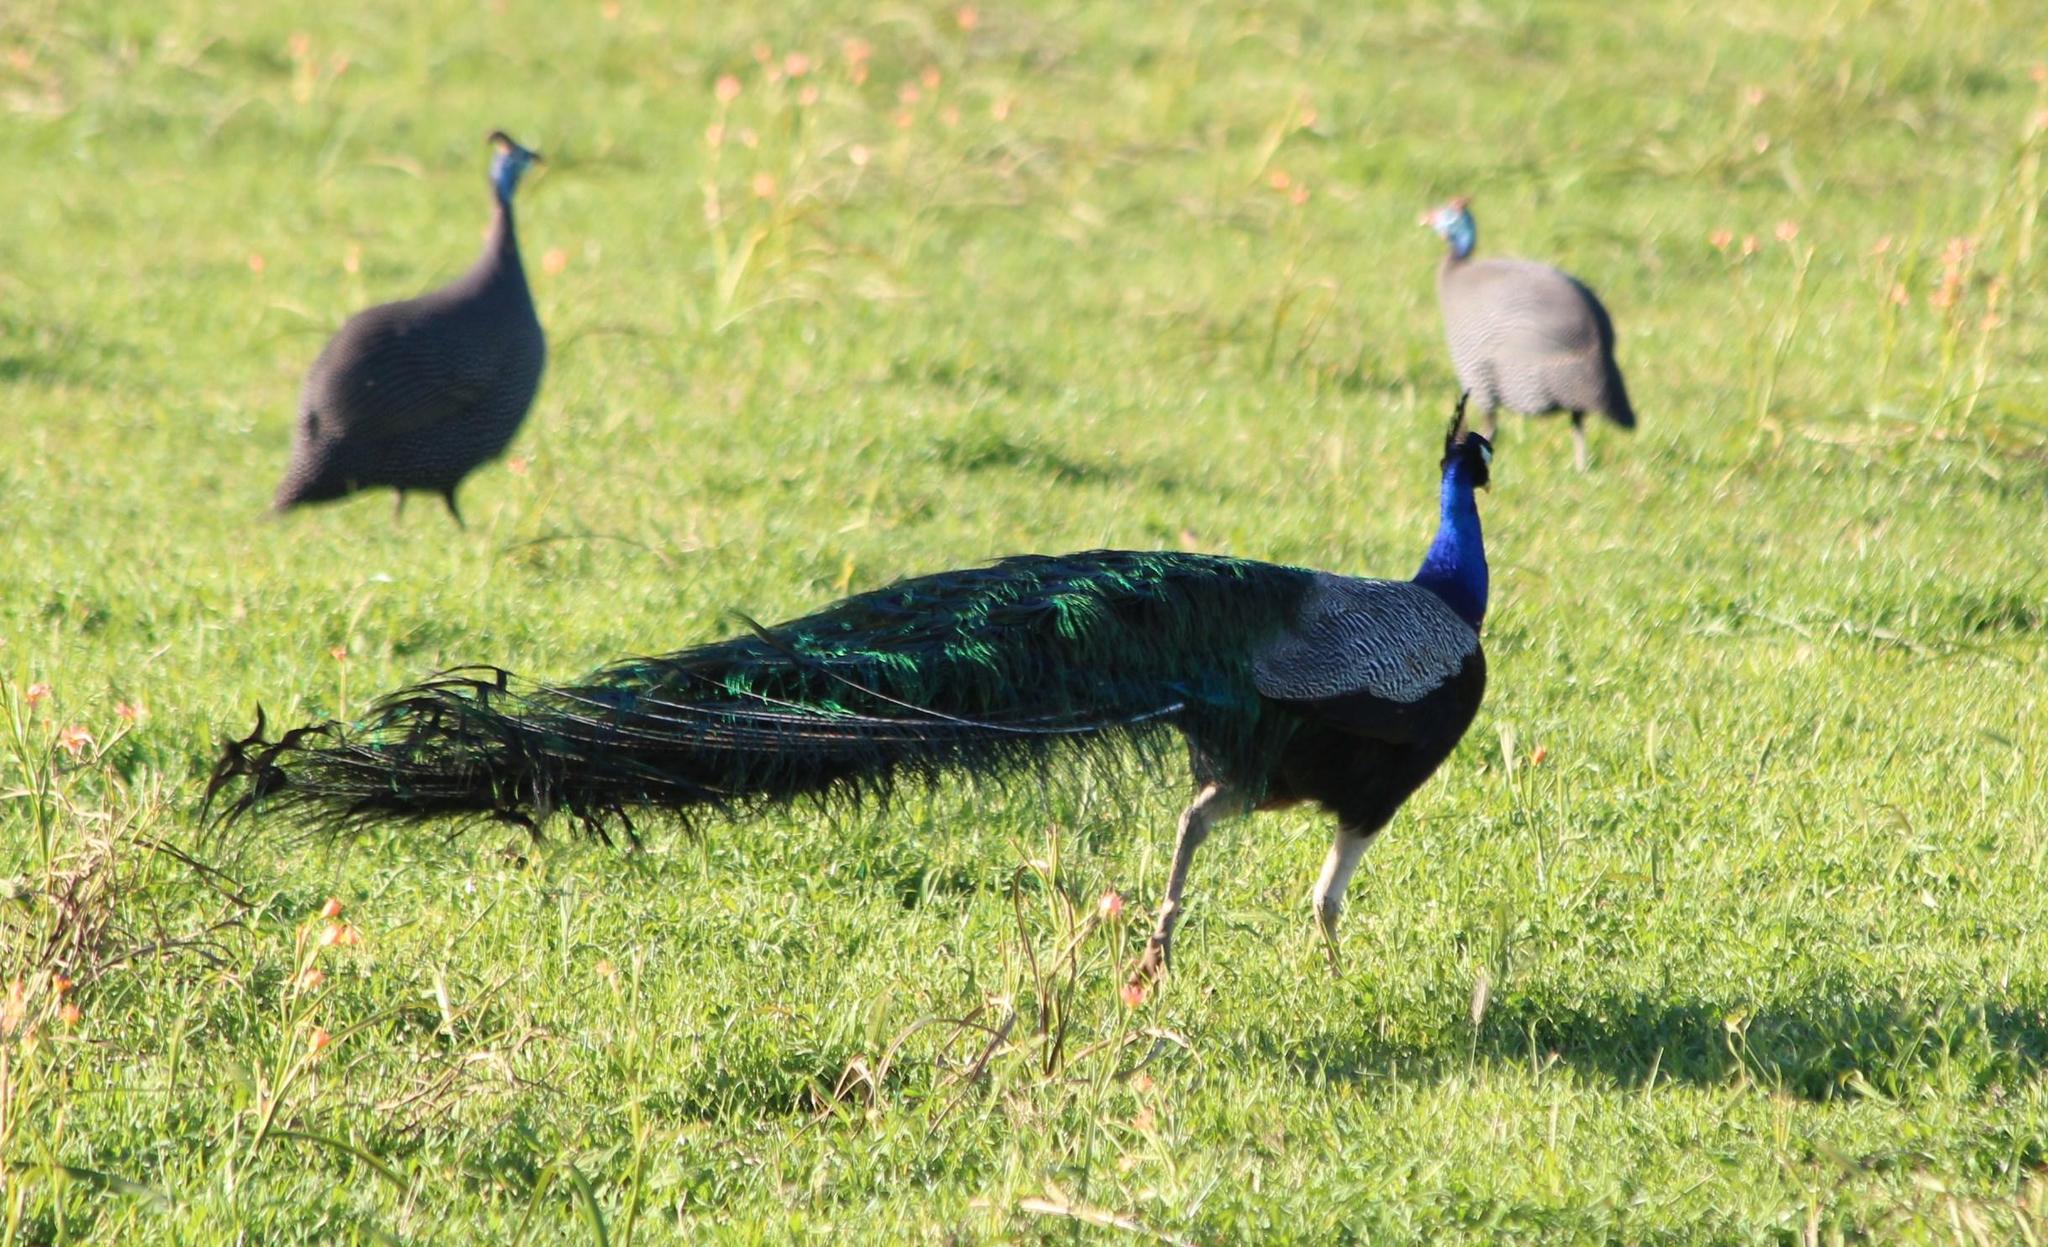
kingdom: Animalia
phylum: Chordata
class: Aves
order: Galliformes
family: Phasianidae
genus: Pavo
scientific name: Pavo cristatus
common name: Indian peafowl
